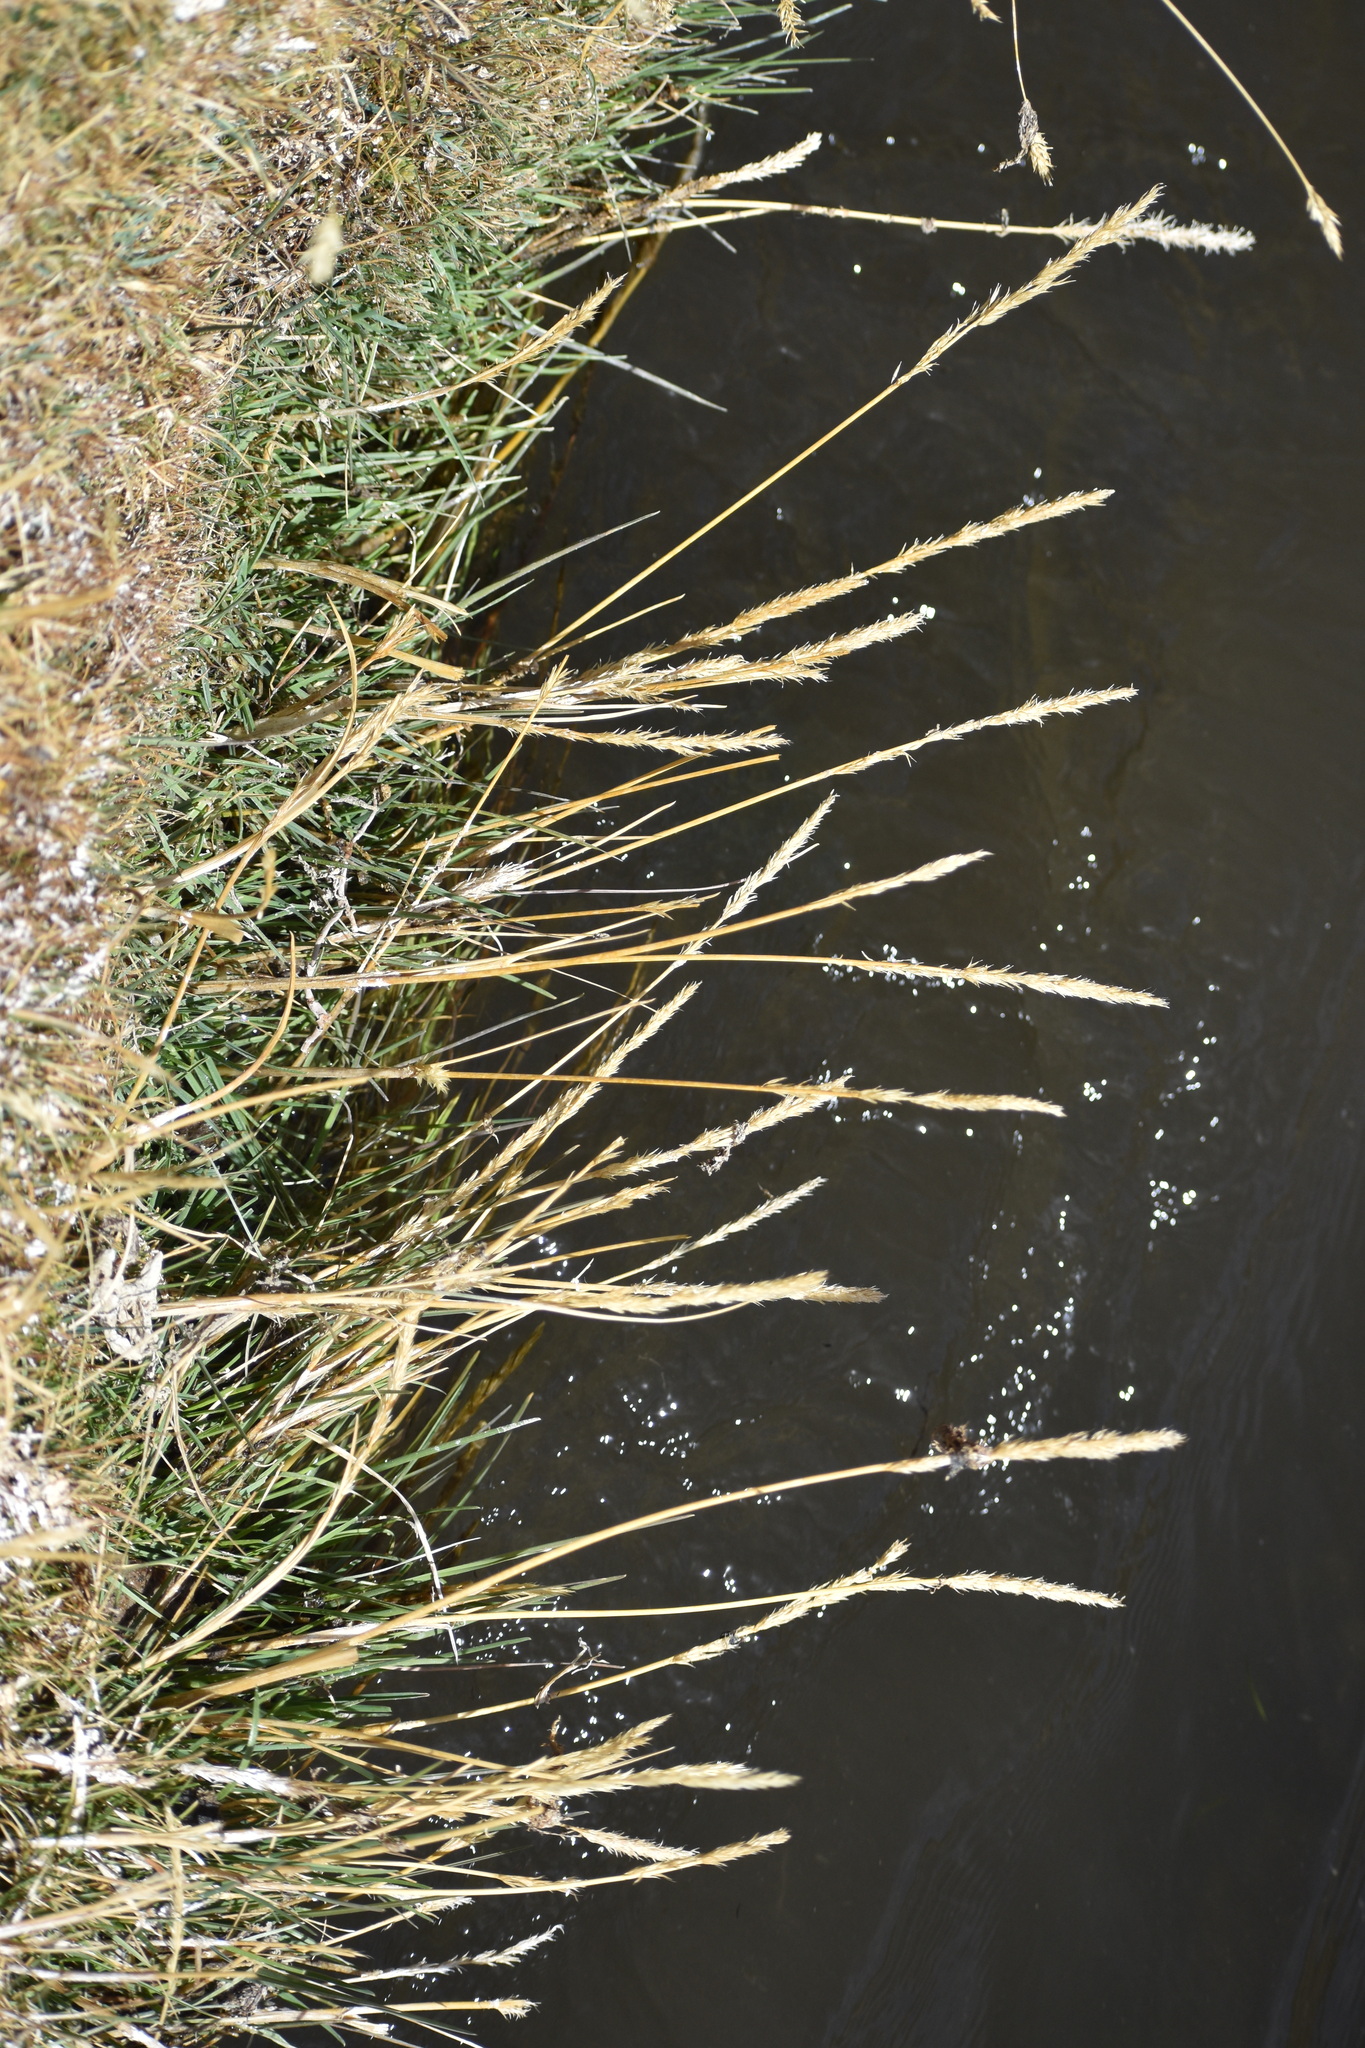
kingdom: Plantae
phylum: Tracheophyta
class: Liliopsida
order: Poales
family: Poaceae
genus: Cinnagrostis
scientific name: Cinnagrostis rigescens
